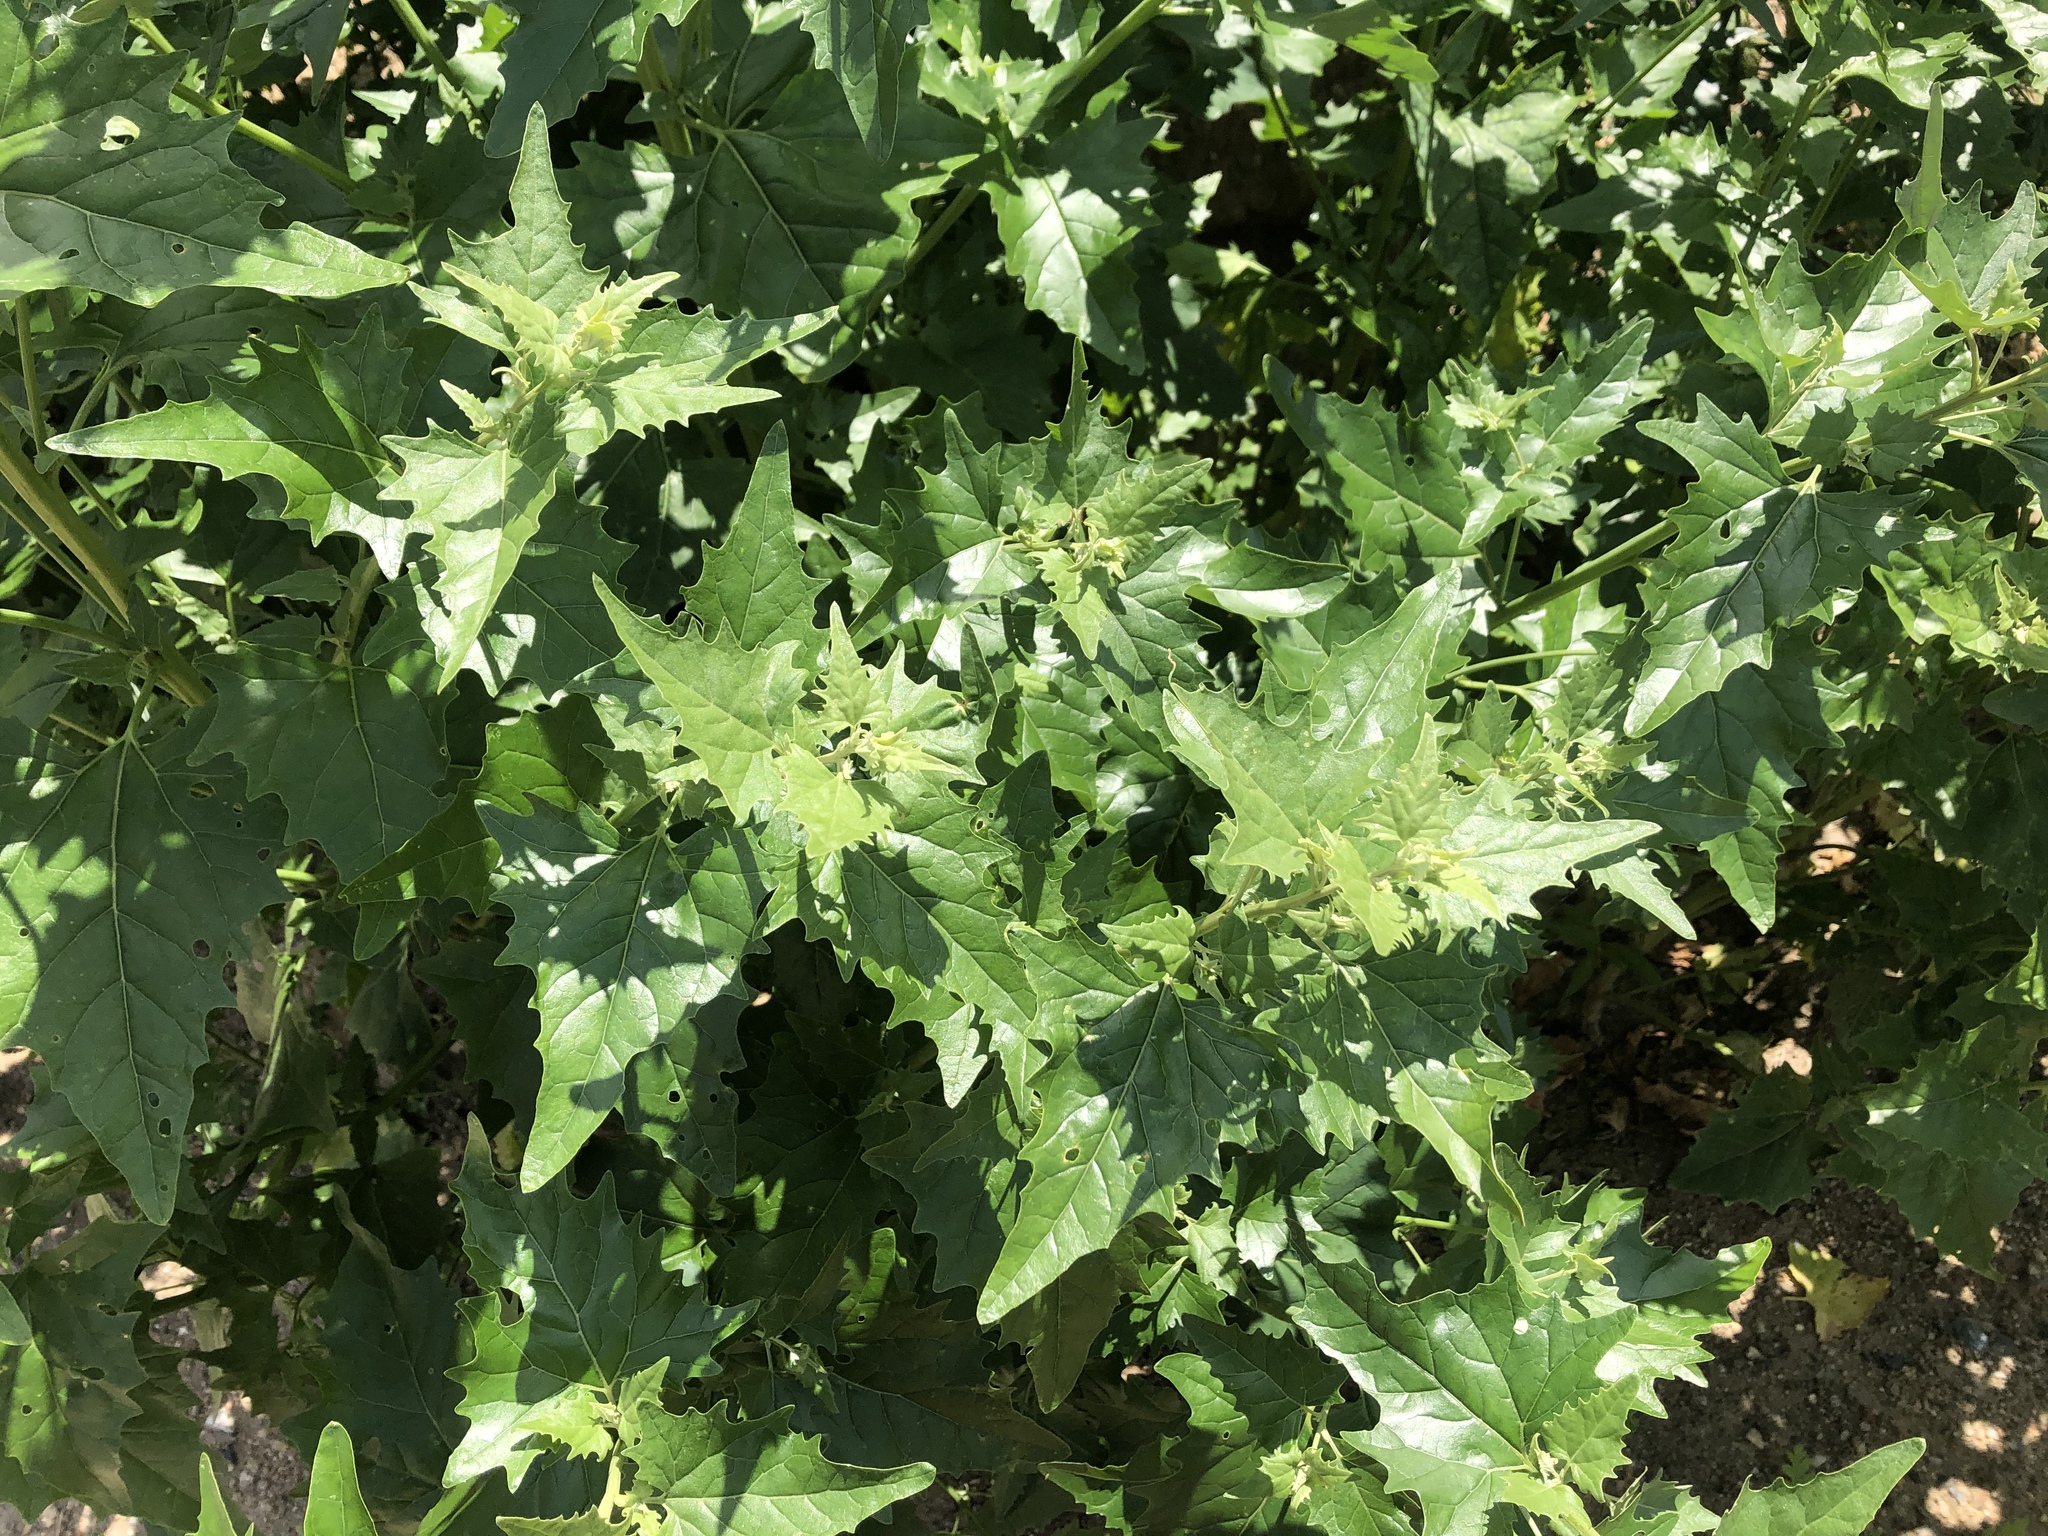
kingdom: Plantae
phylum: Tracheophyta
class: Magnoliopsida
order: Caryophyllales
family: Amaranthaceae
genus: Atriplex
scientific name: Atriplex sagittata
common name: Purple orache
